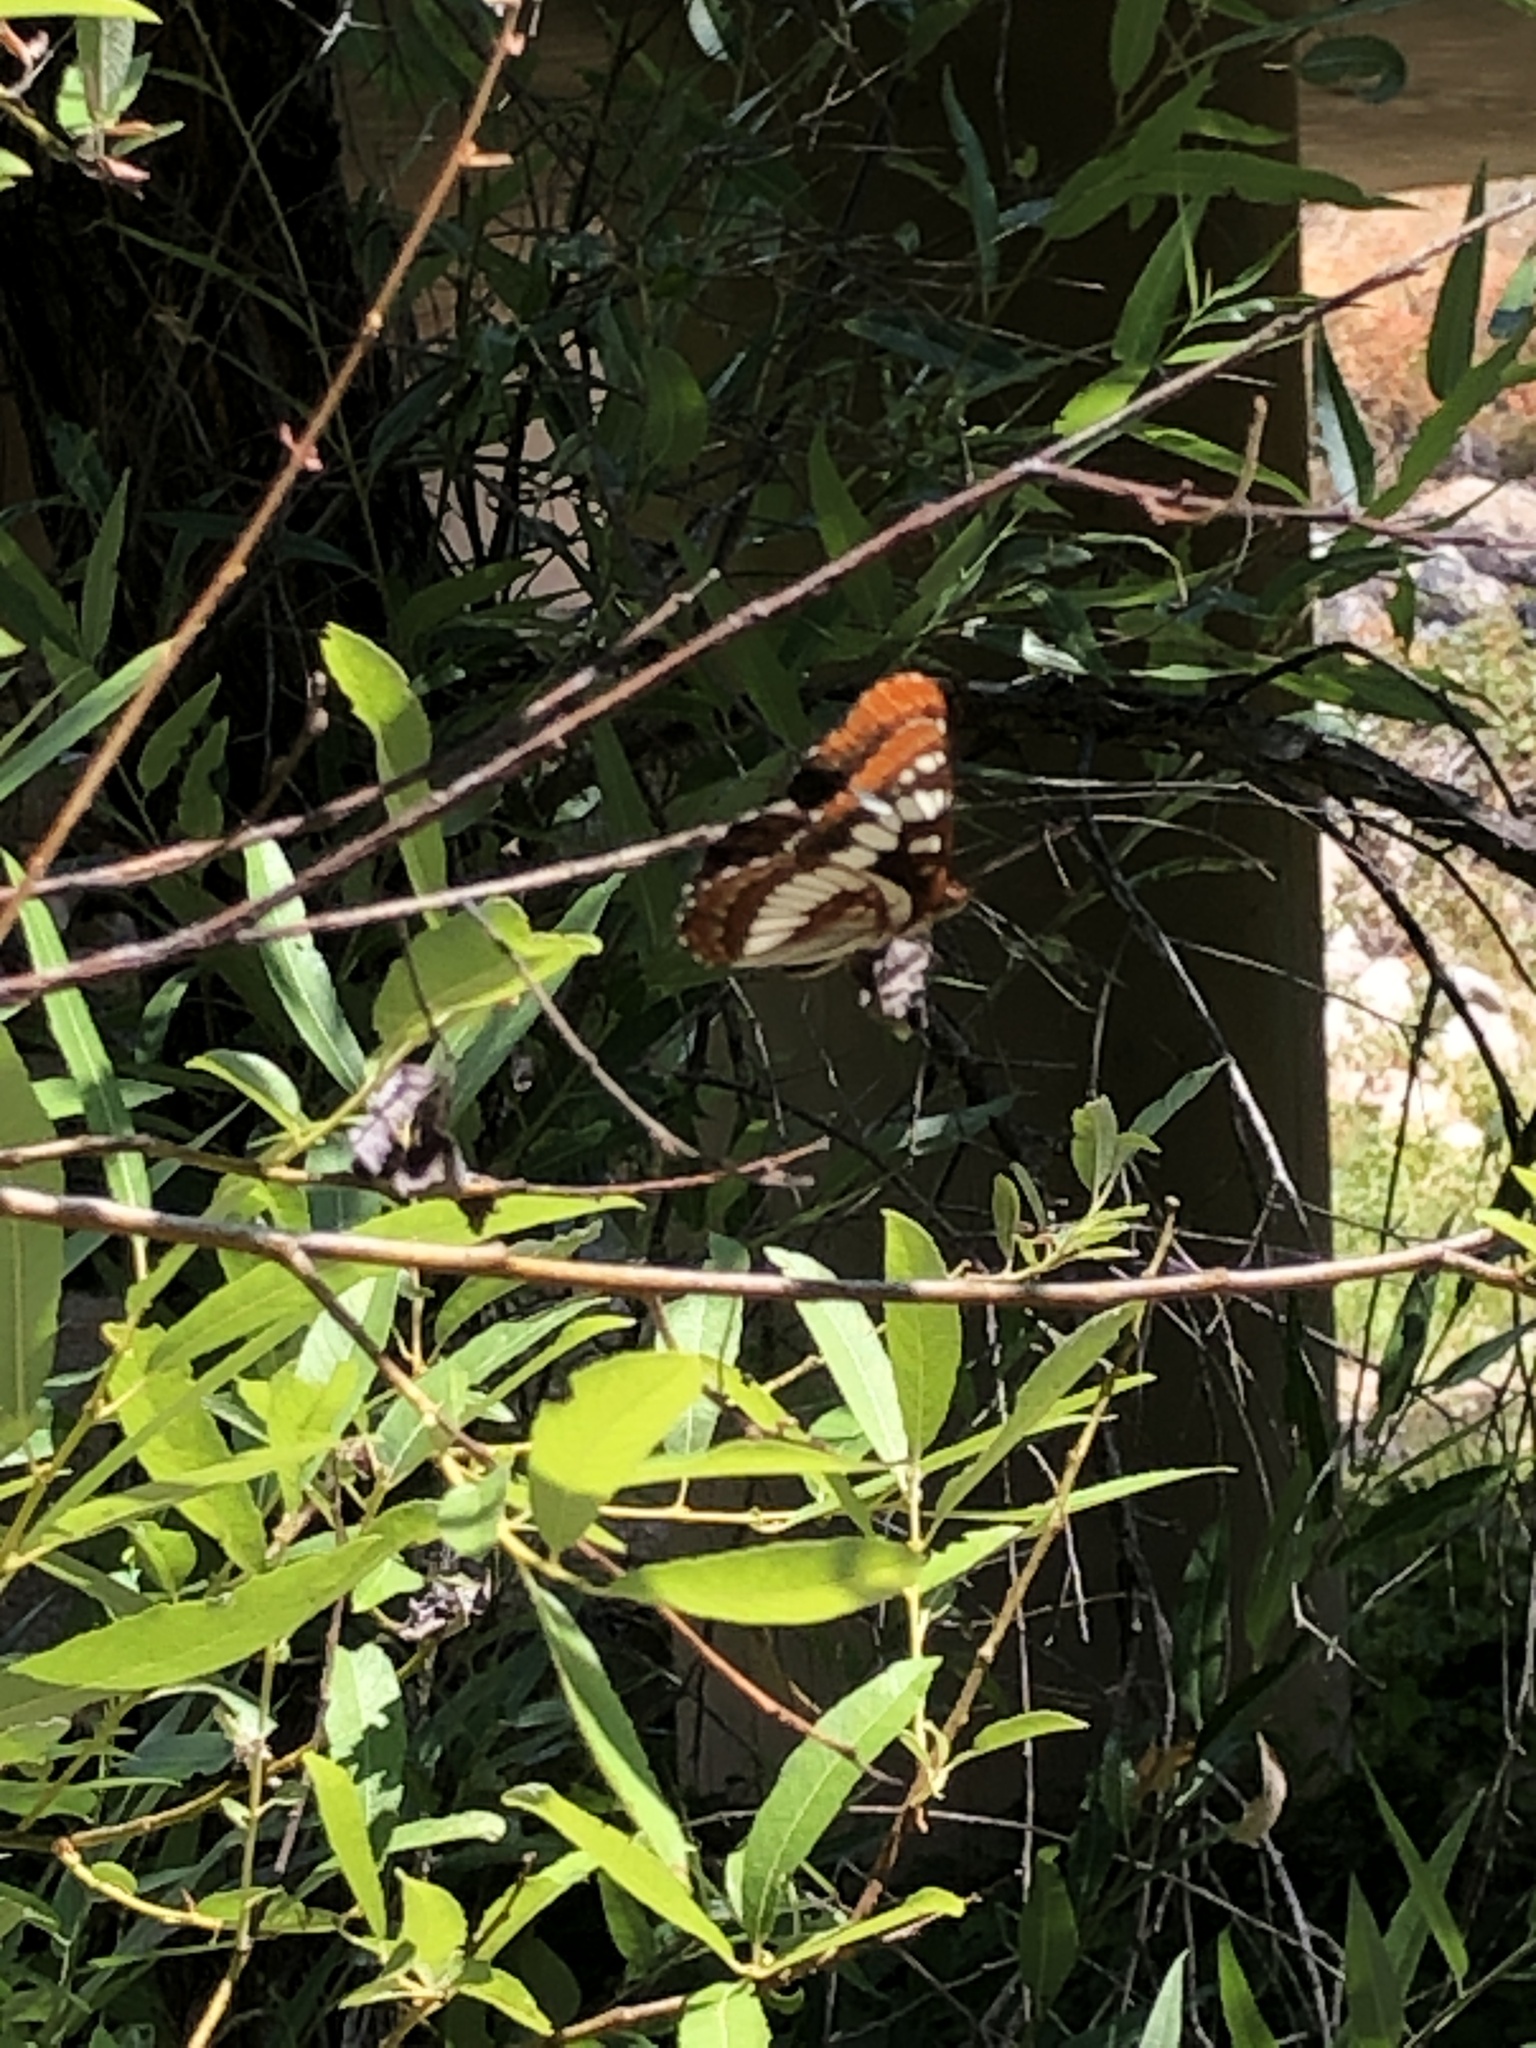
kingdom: Animalia
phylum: Arthropoda
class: Insecta
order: Lepidoptera
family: Nymphalidae
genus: Limenitis
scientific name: Limenitis lorquini
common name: Lorquin's admiral
